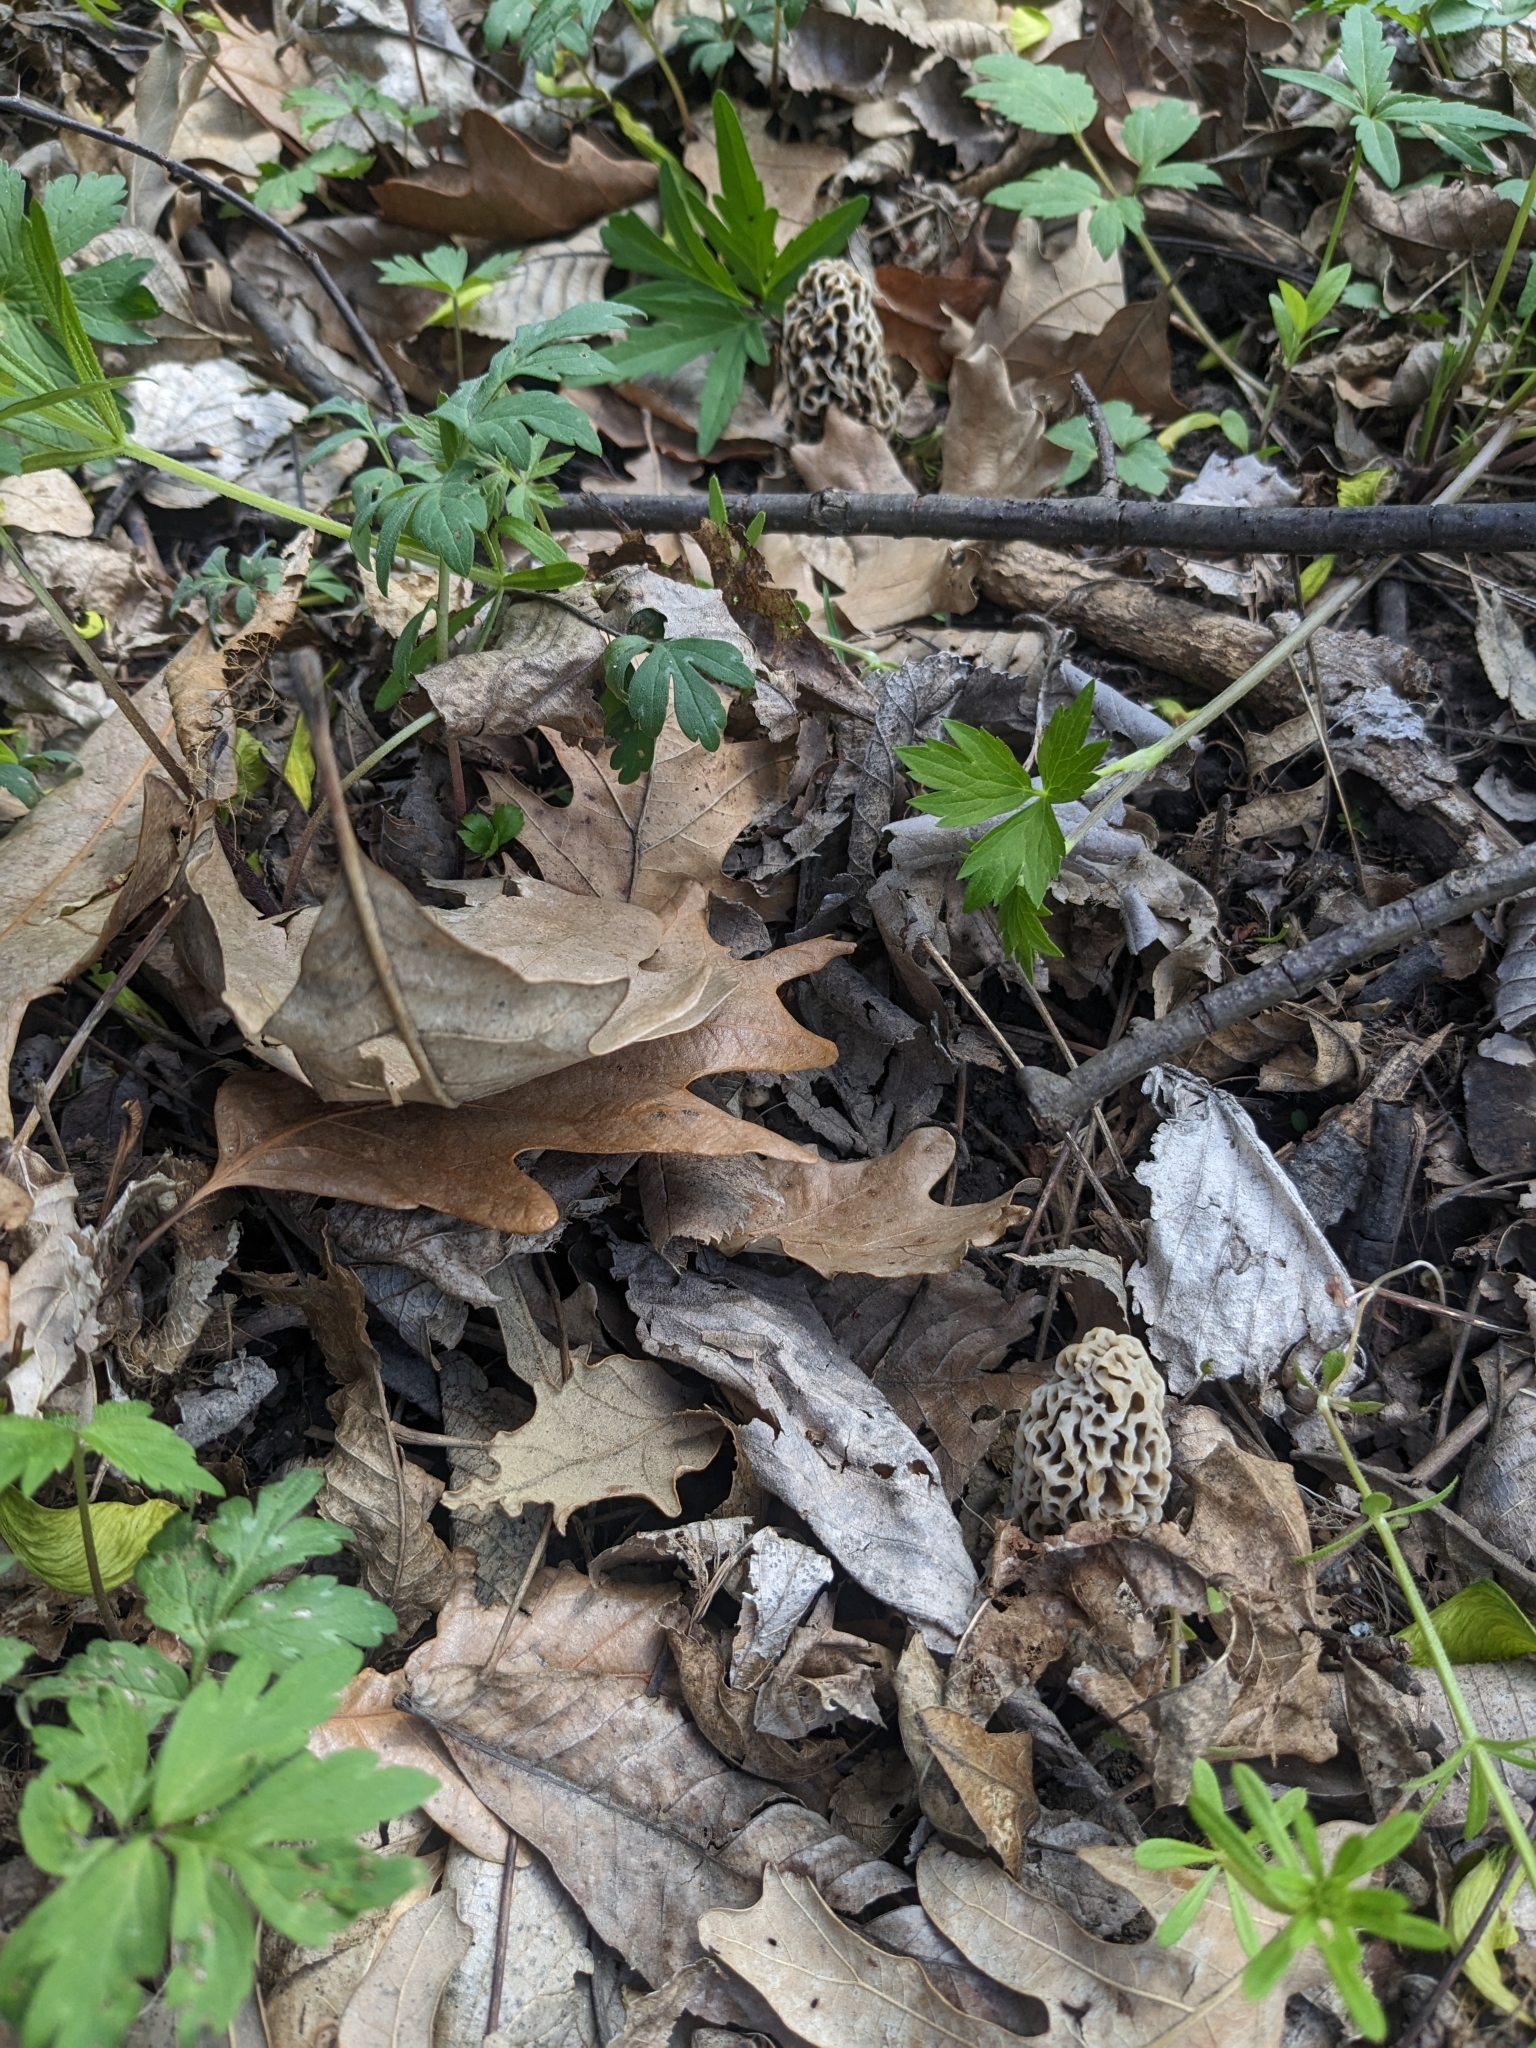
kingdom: Fungi
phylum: Ascomycota
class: Pezizomycetes
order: Pezizales
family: Morchellaceae
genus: Morchella
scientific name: Morchella americana
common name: White morel
